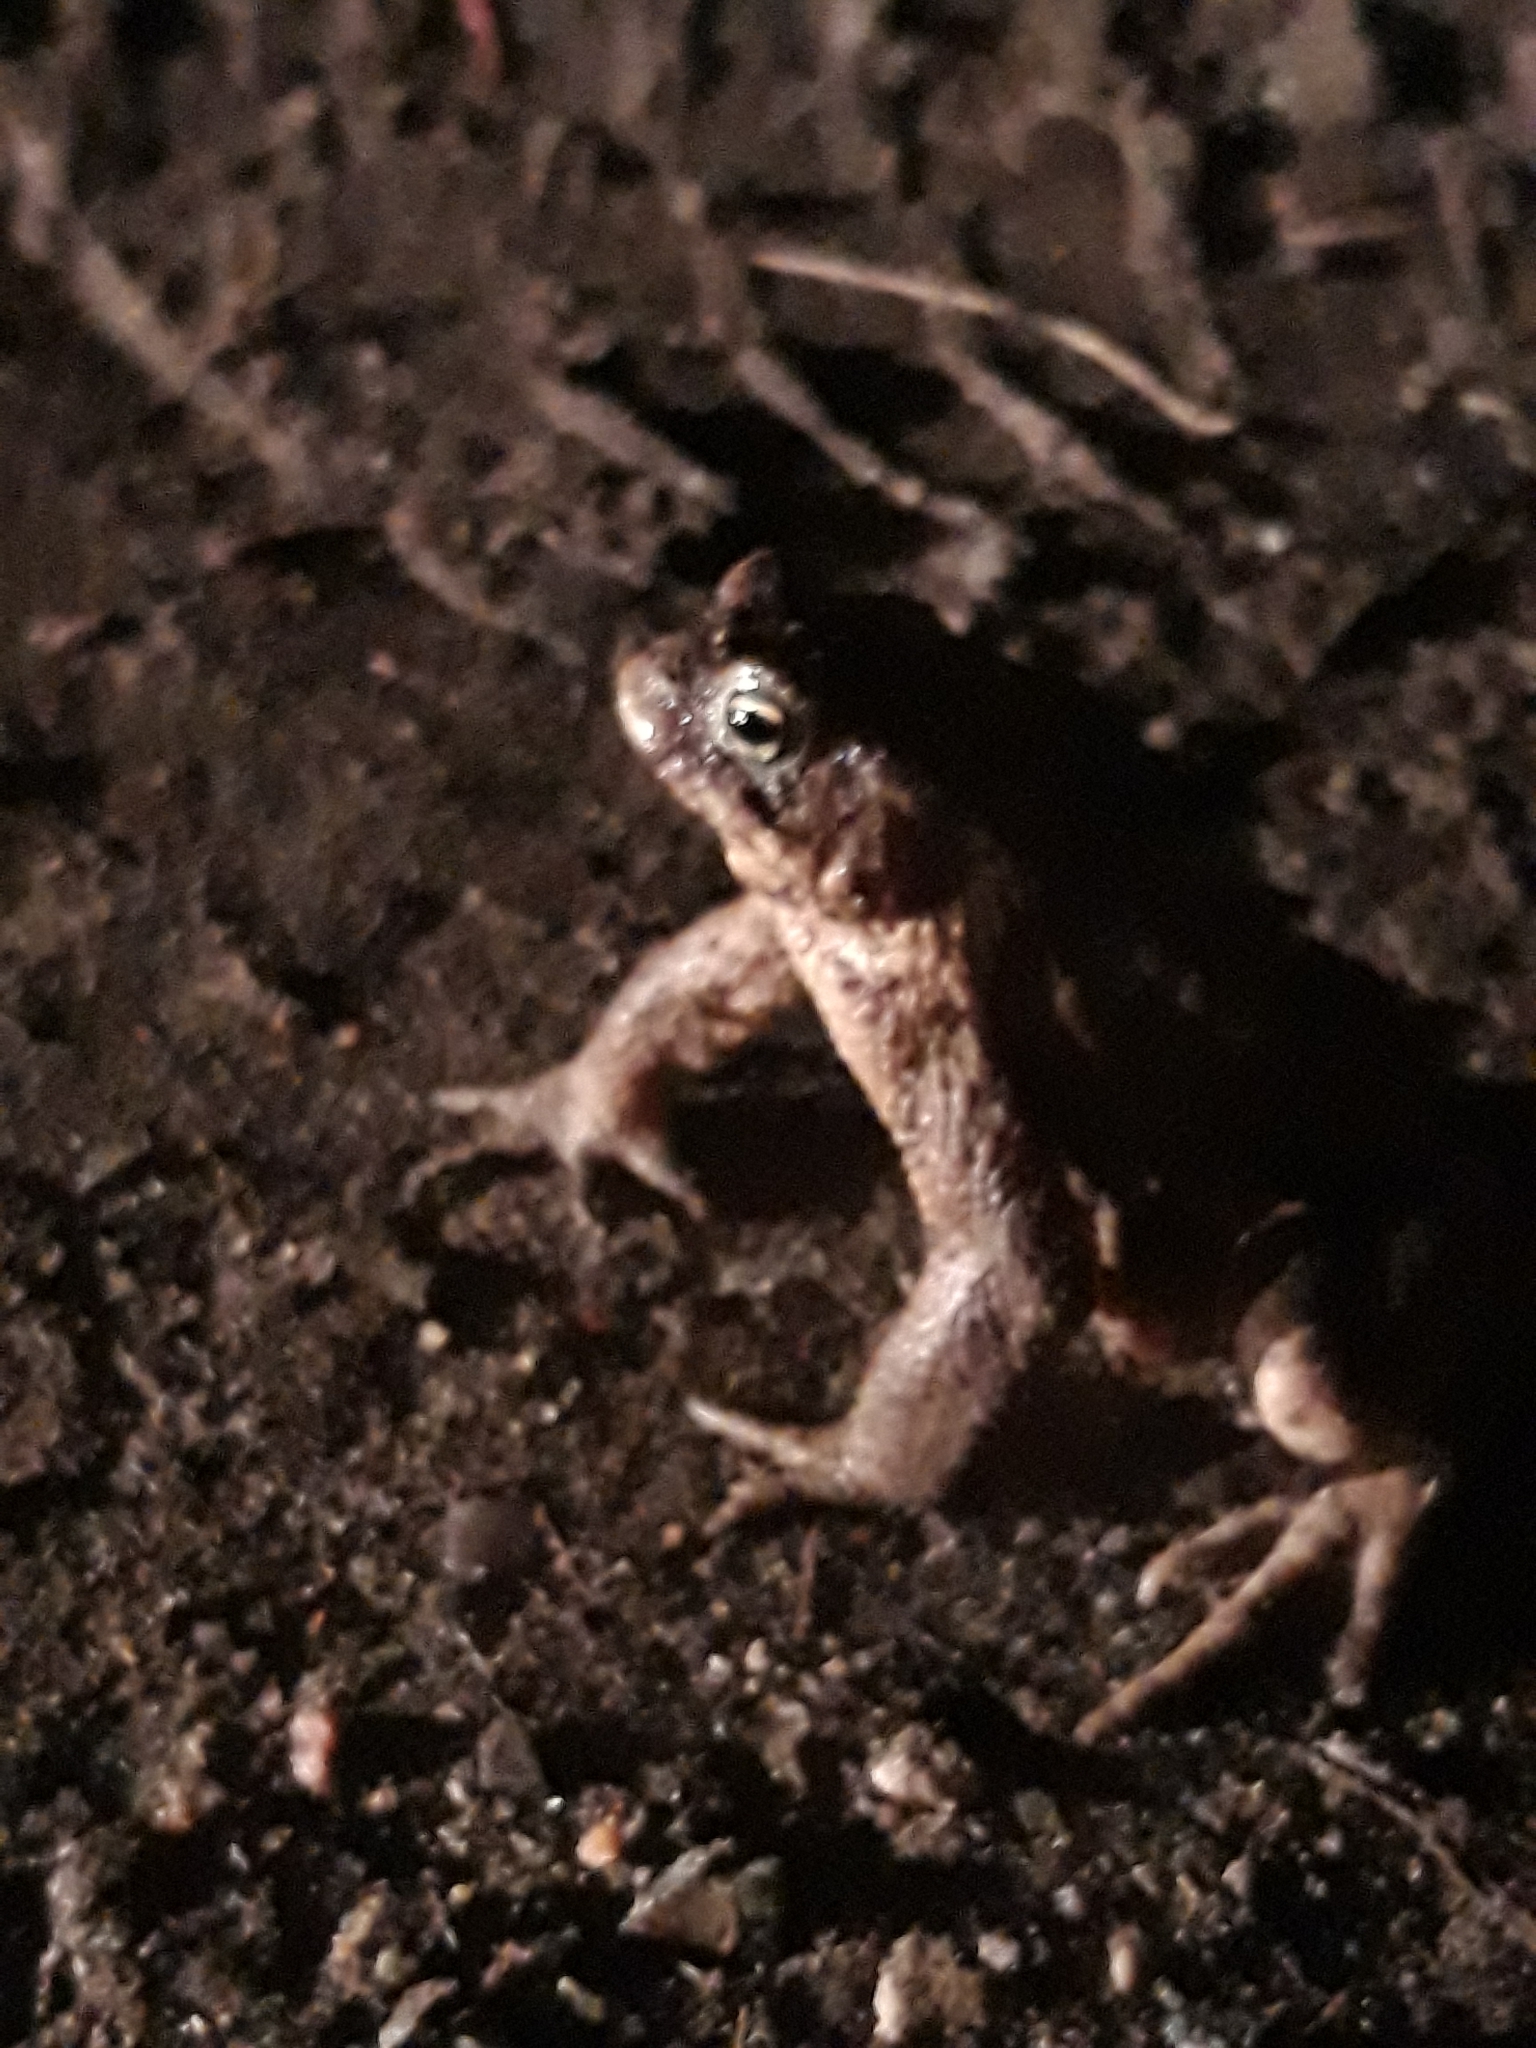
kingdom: Animalia
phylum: Chordata
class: Amphibia
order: Anura
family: Bufonidae
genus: Bufo
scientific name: Bufo bufo
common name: Common toad
